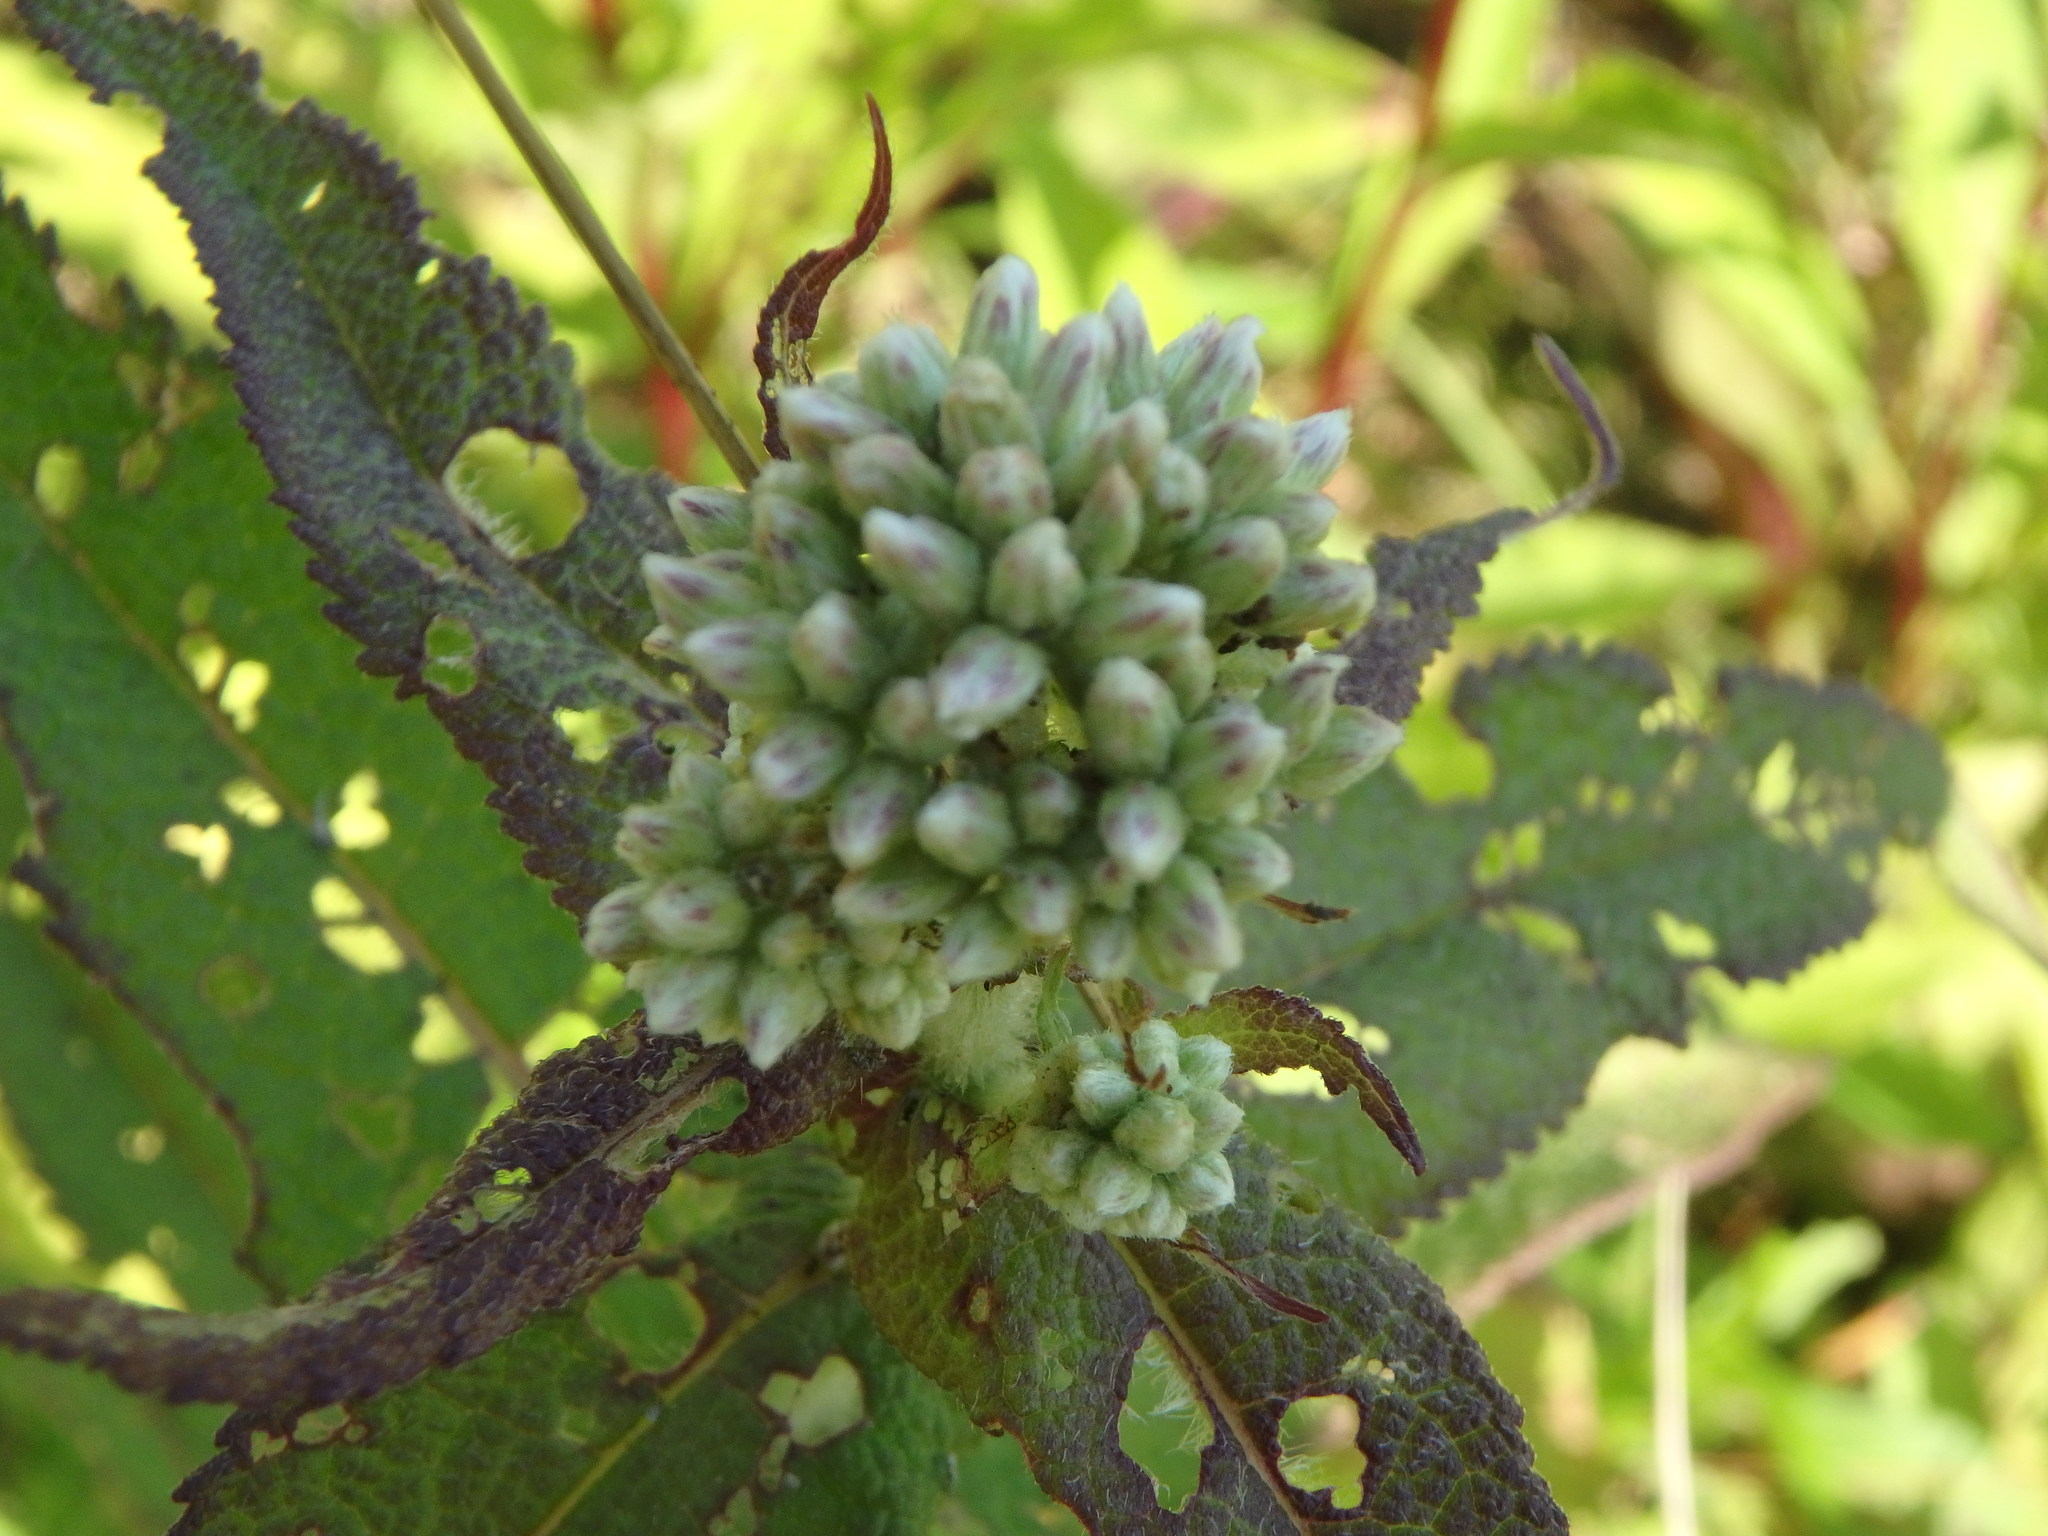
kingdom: Plantae
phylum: Tracheophyta
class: Magnoliopsida
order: Asterales
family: Asteraceae
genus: Eupatorium
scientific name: Eupatorium perfoliatum
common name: Boneset
